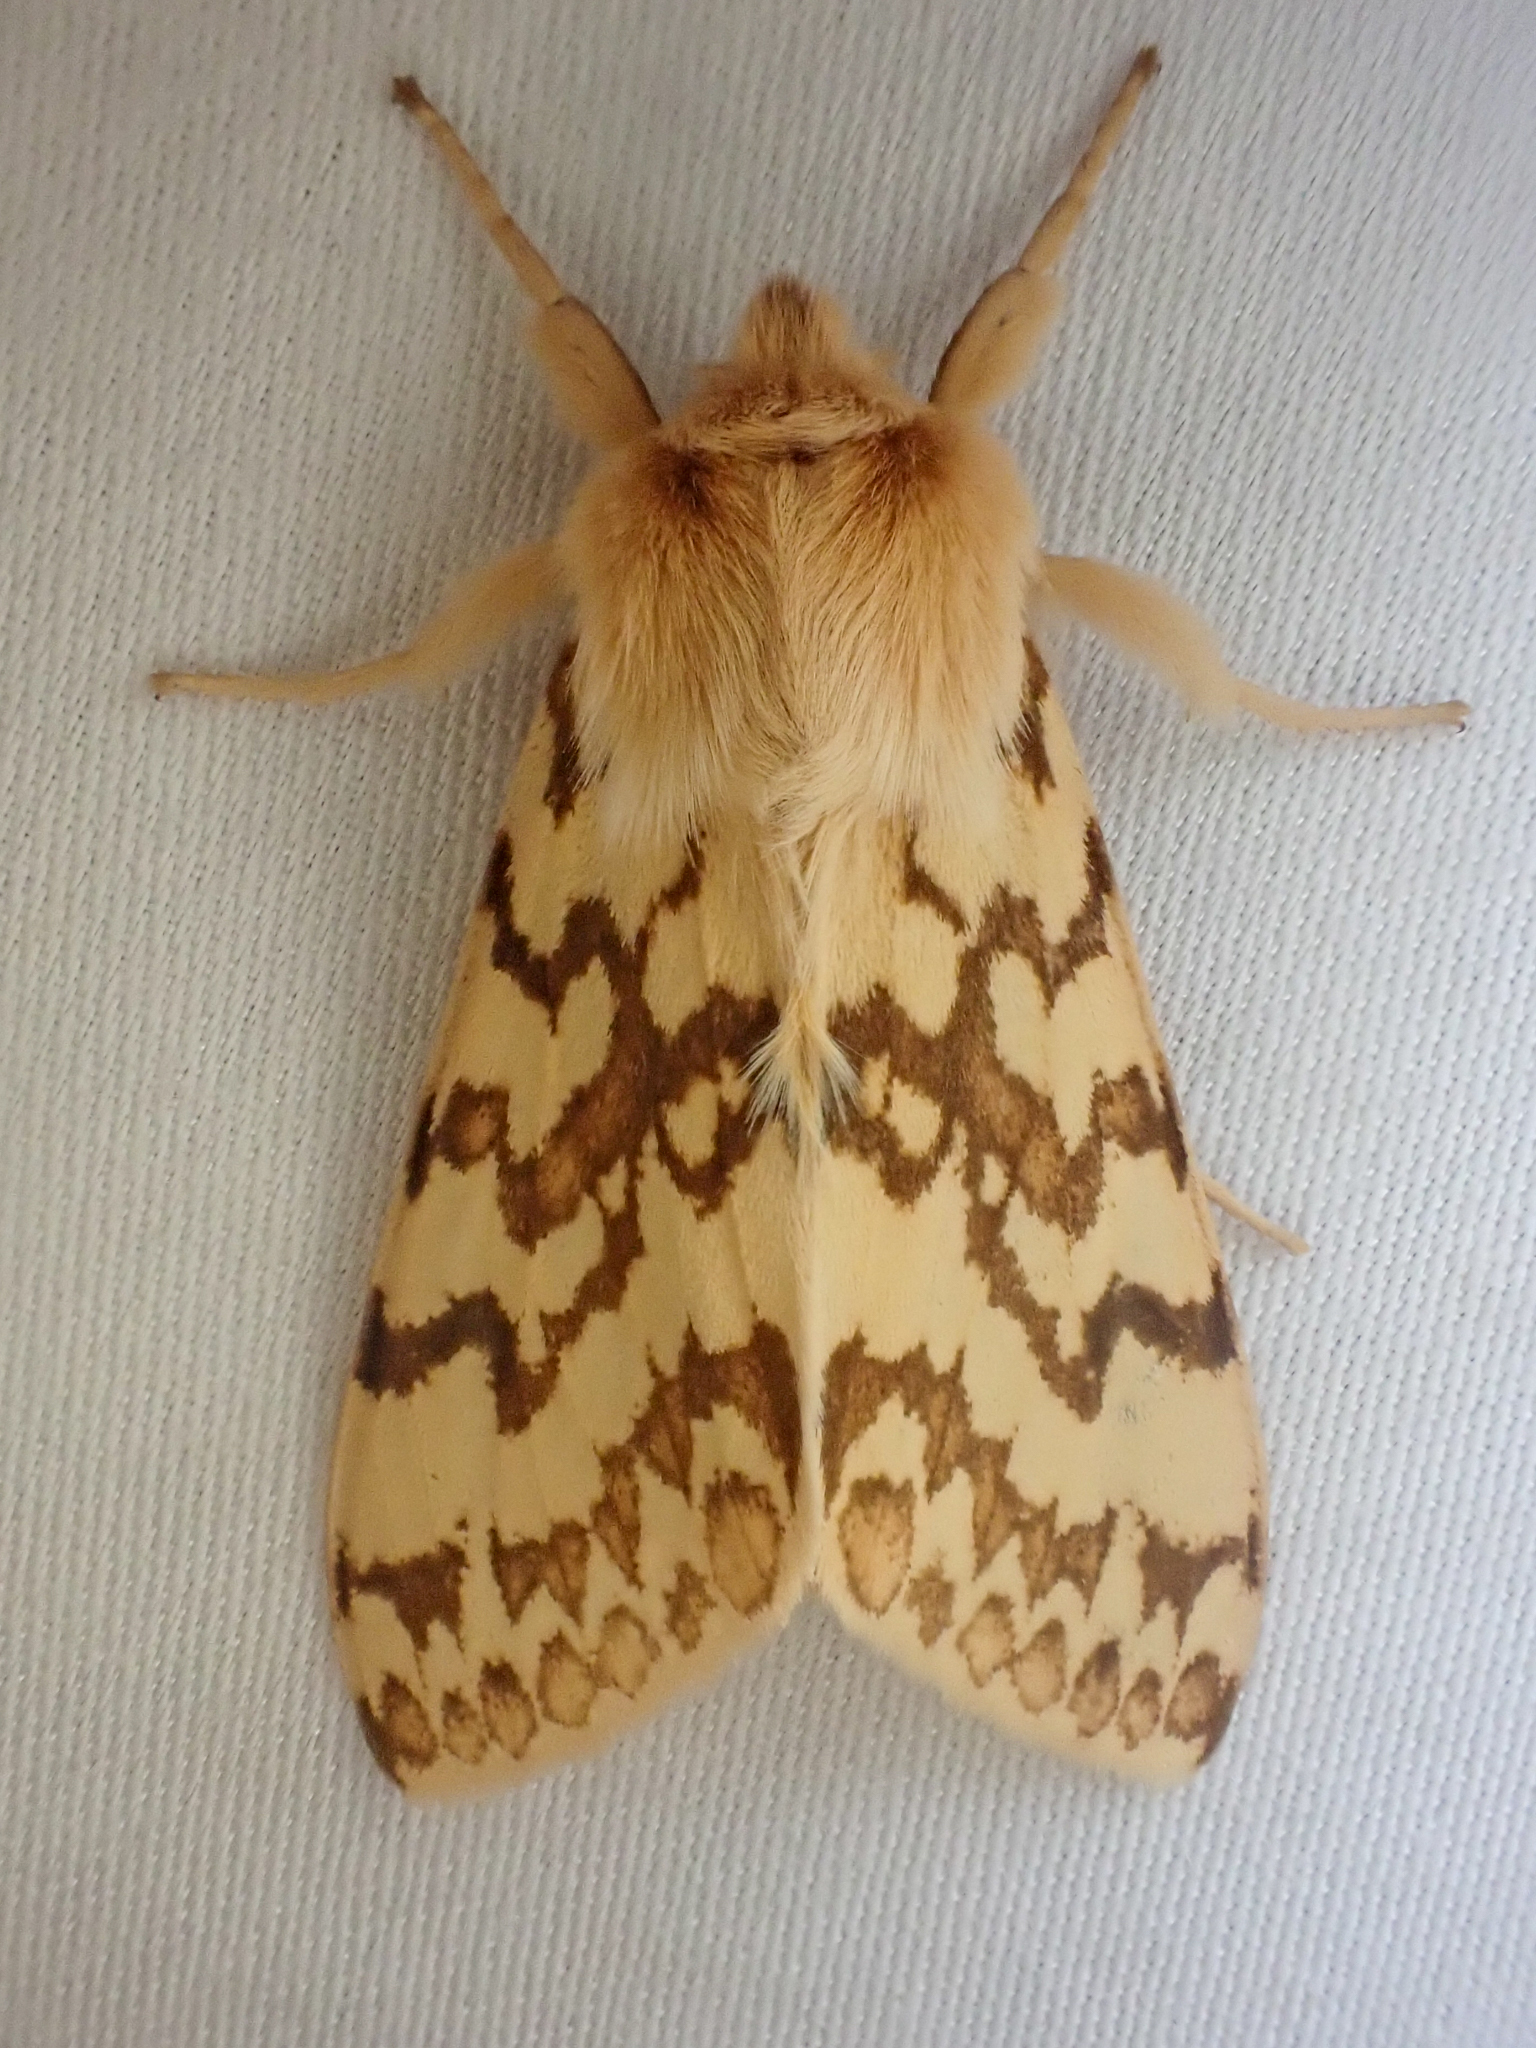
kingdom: Animalia
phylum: Arthropoda
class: Insecta
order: Lepidoptera
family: Erebidae
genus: Lophocampa
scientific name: Lophocampa maculata
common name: Spotted tussock moth
